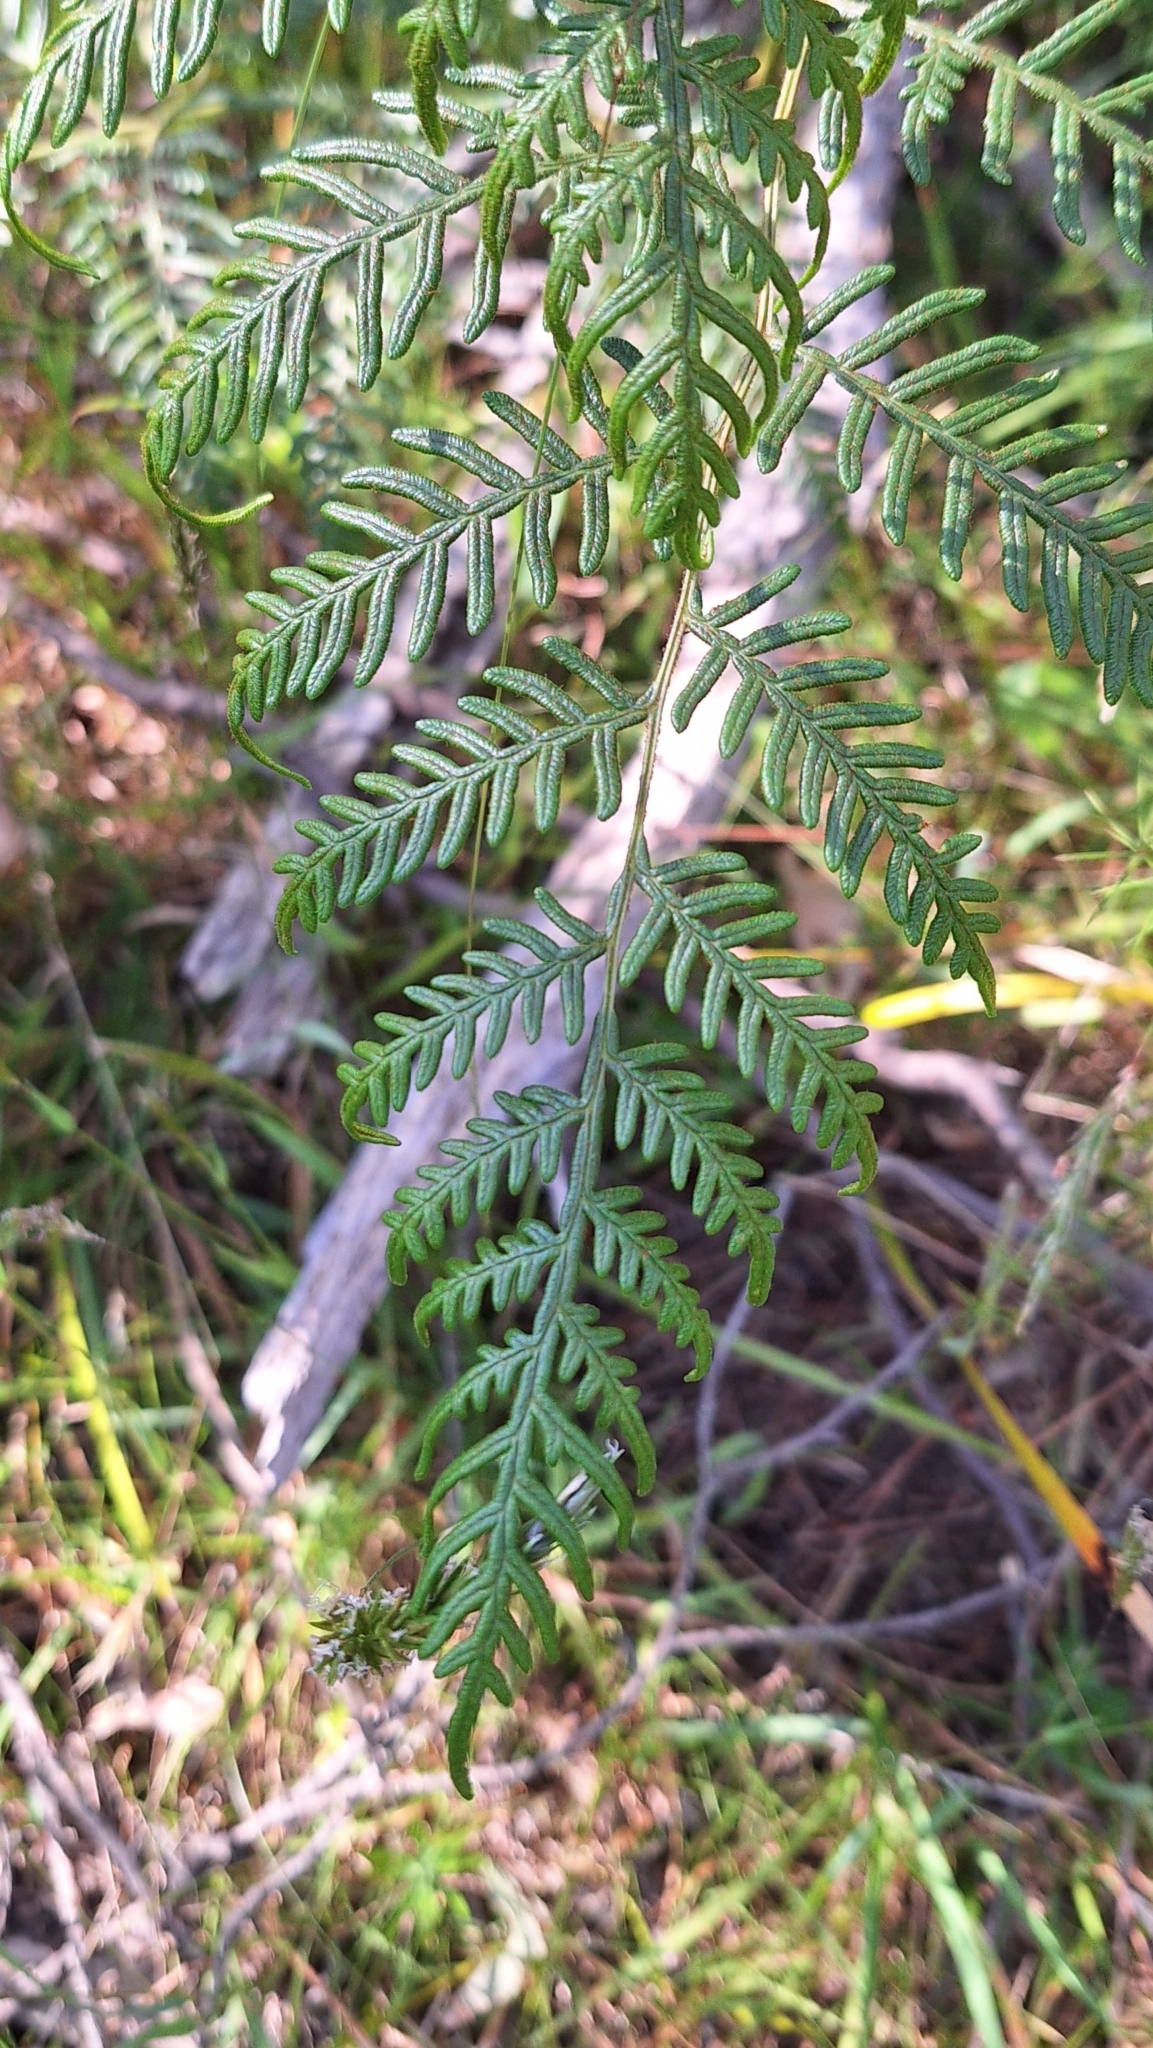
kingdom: Plantae
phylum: Tracheophyta
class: Polypodiopsida
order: Polypodiales
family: Dennstaedtiaceae
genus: Pteridium
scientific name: Pteridium esculentum
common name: Bracken fern
